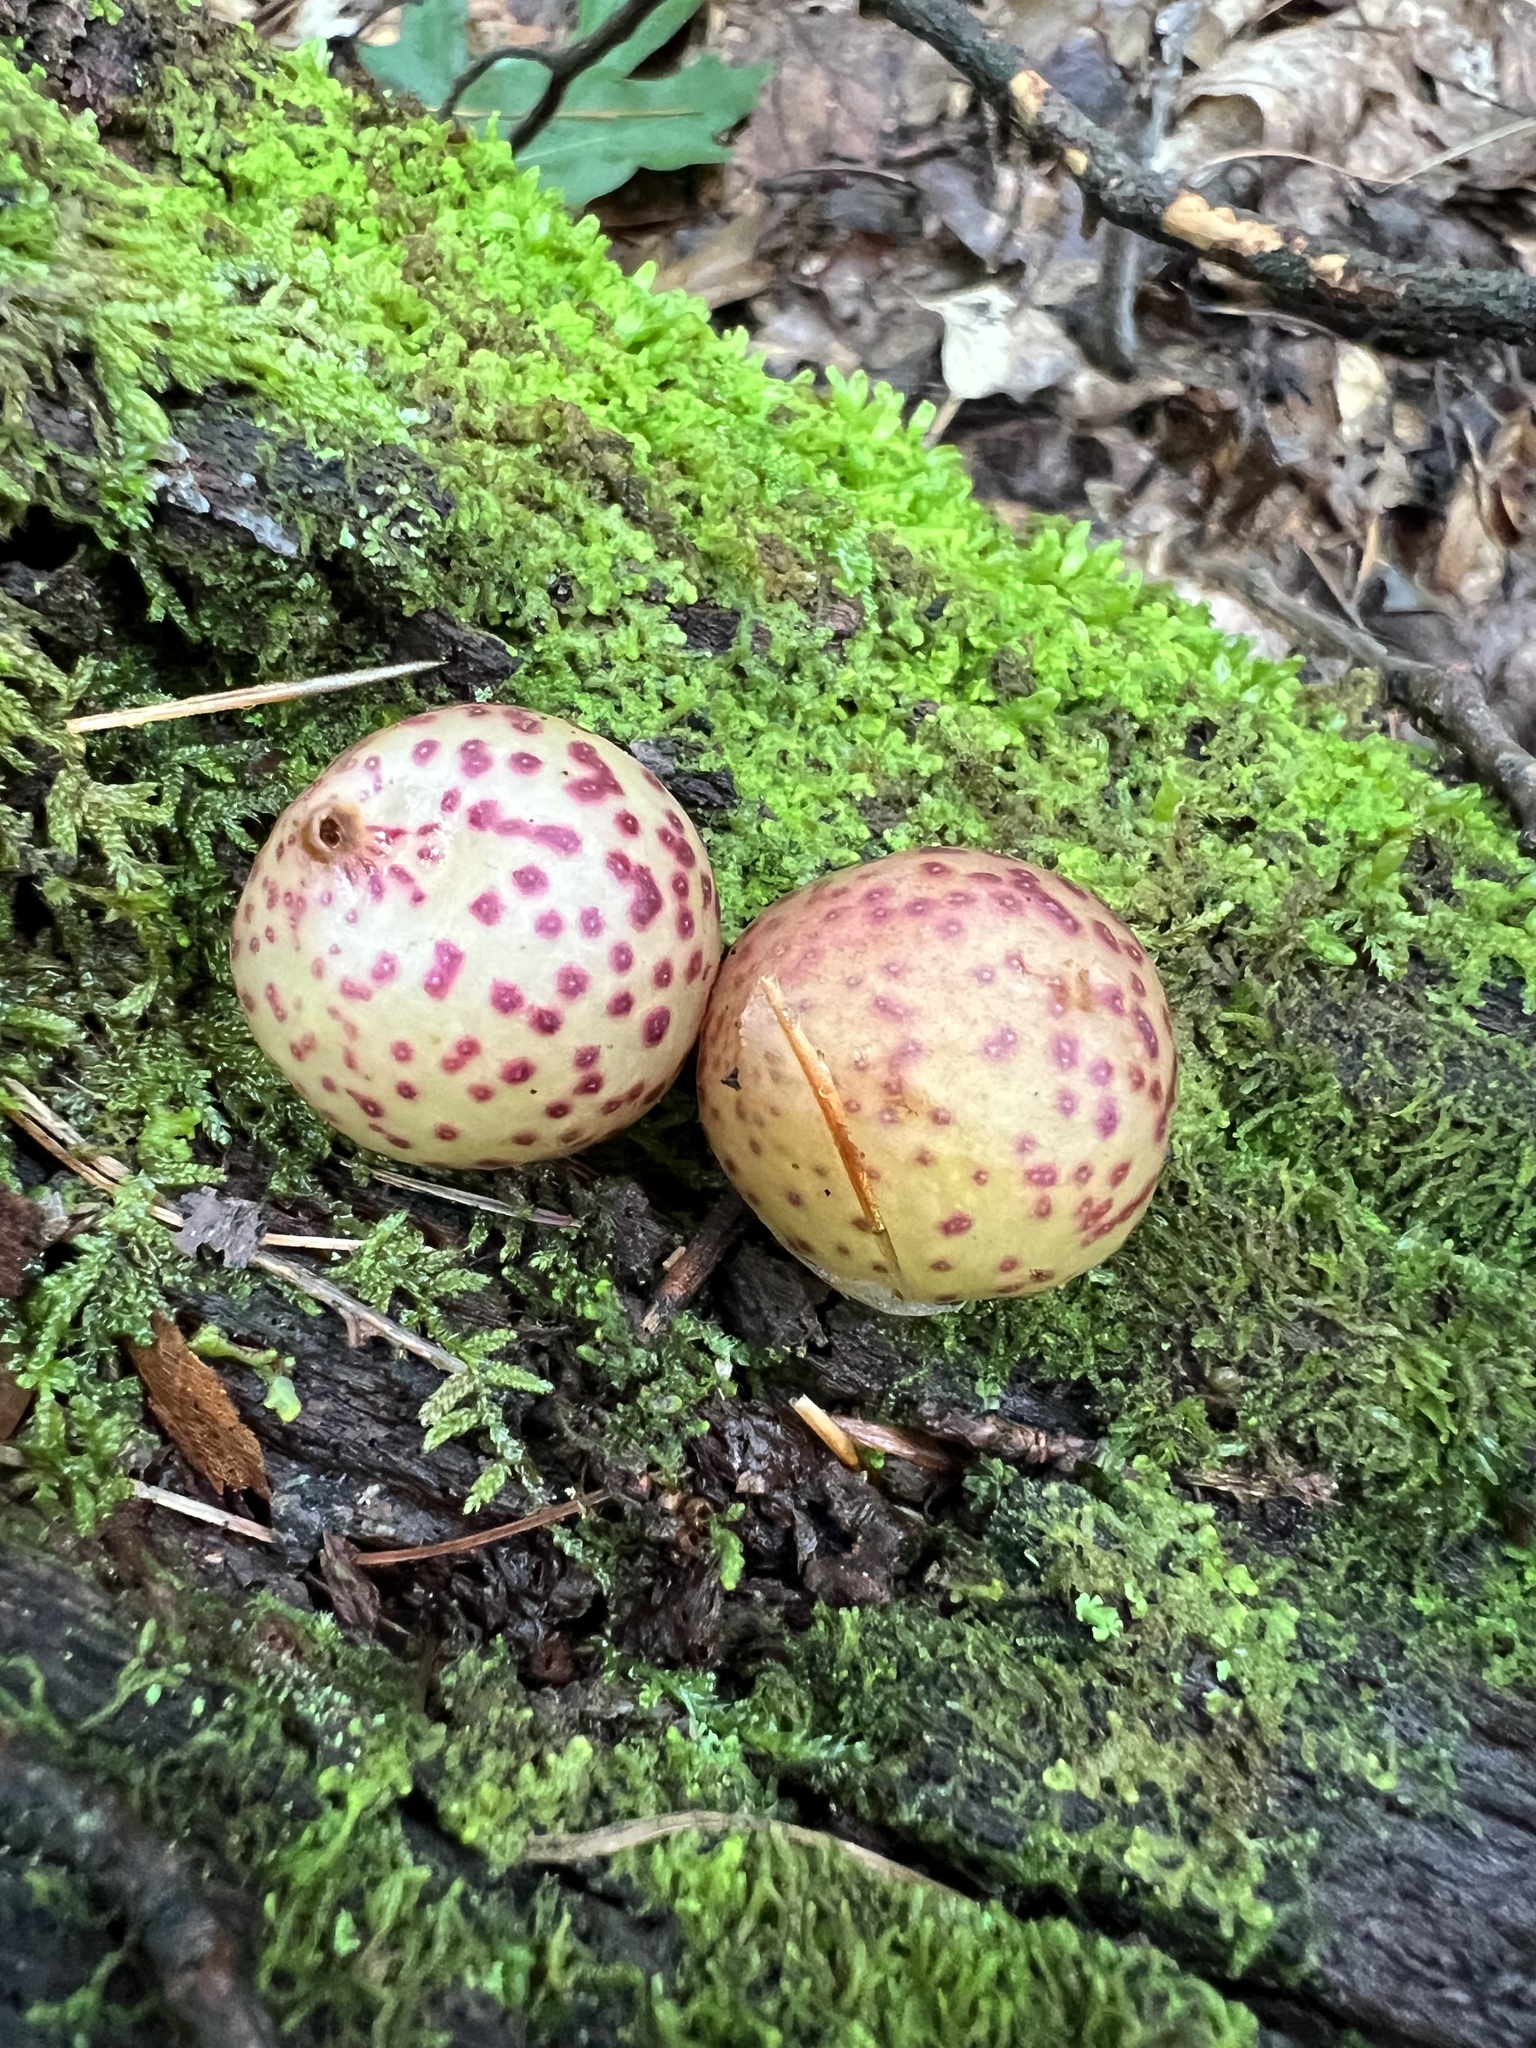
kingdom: Animalia
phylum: Arthropoda
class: Insecta
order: Hymenoptera
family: Cynipidae
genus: Amphibolips
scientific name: Amphibolips
